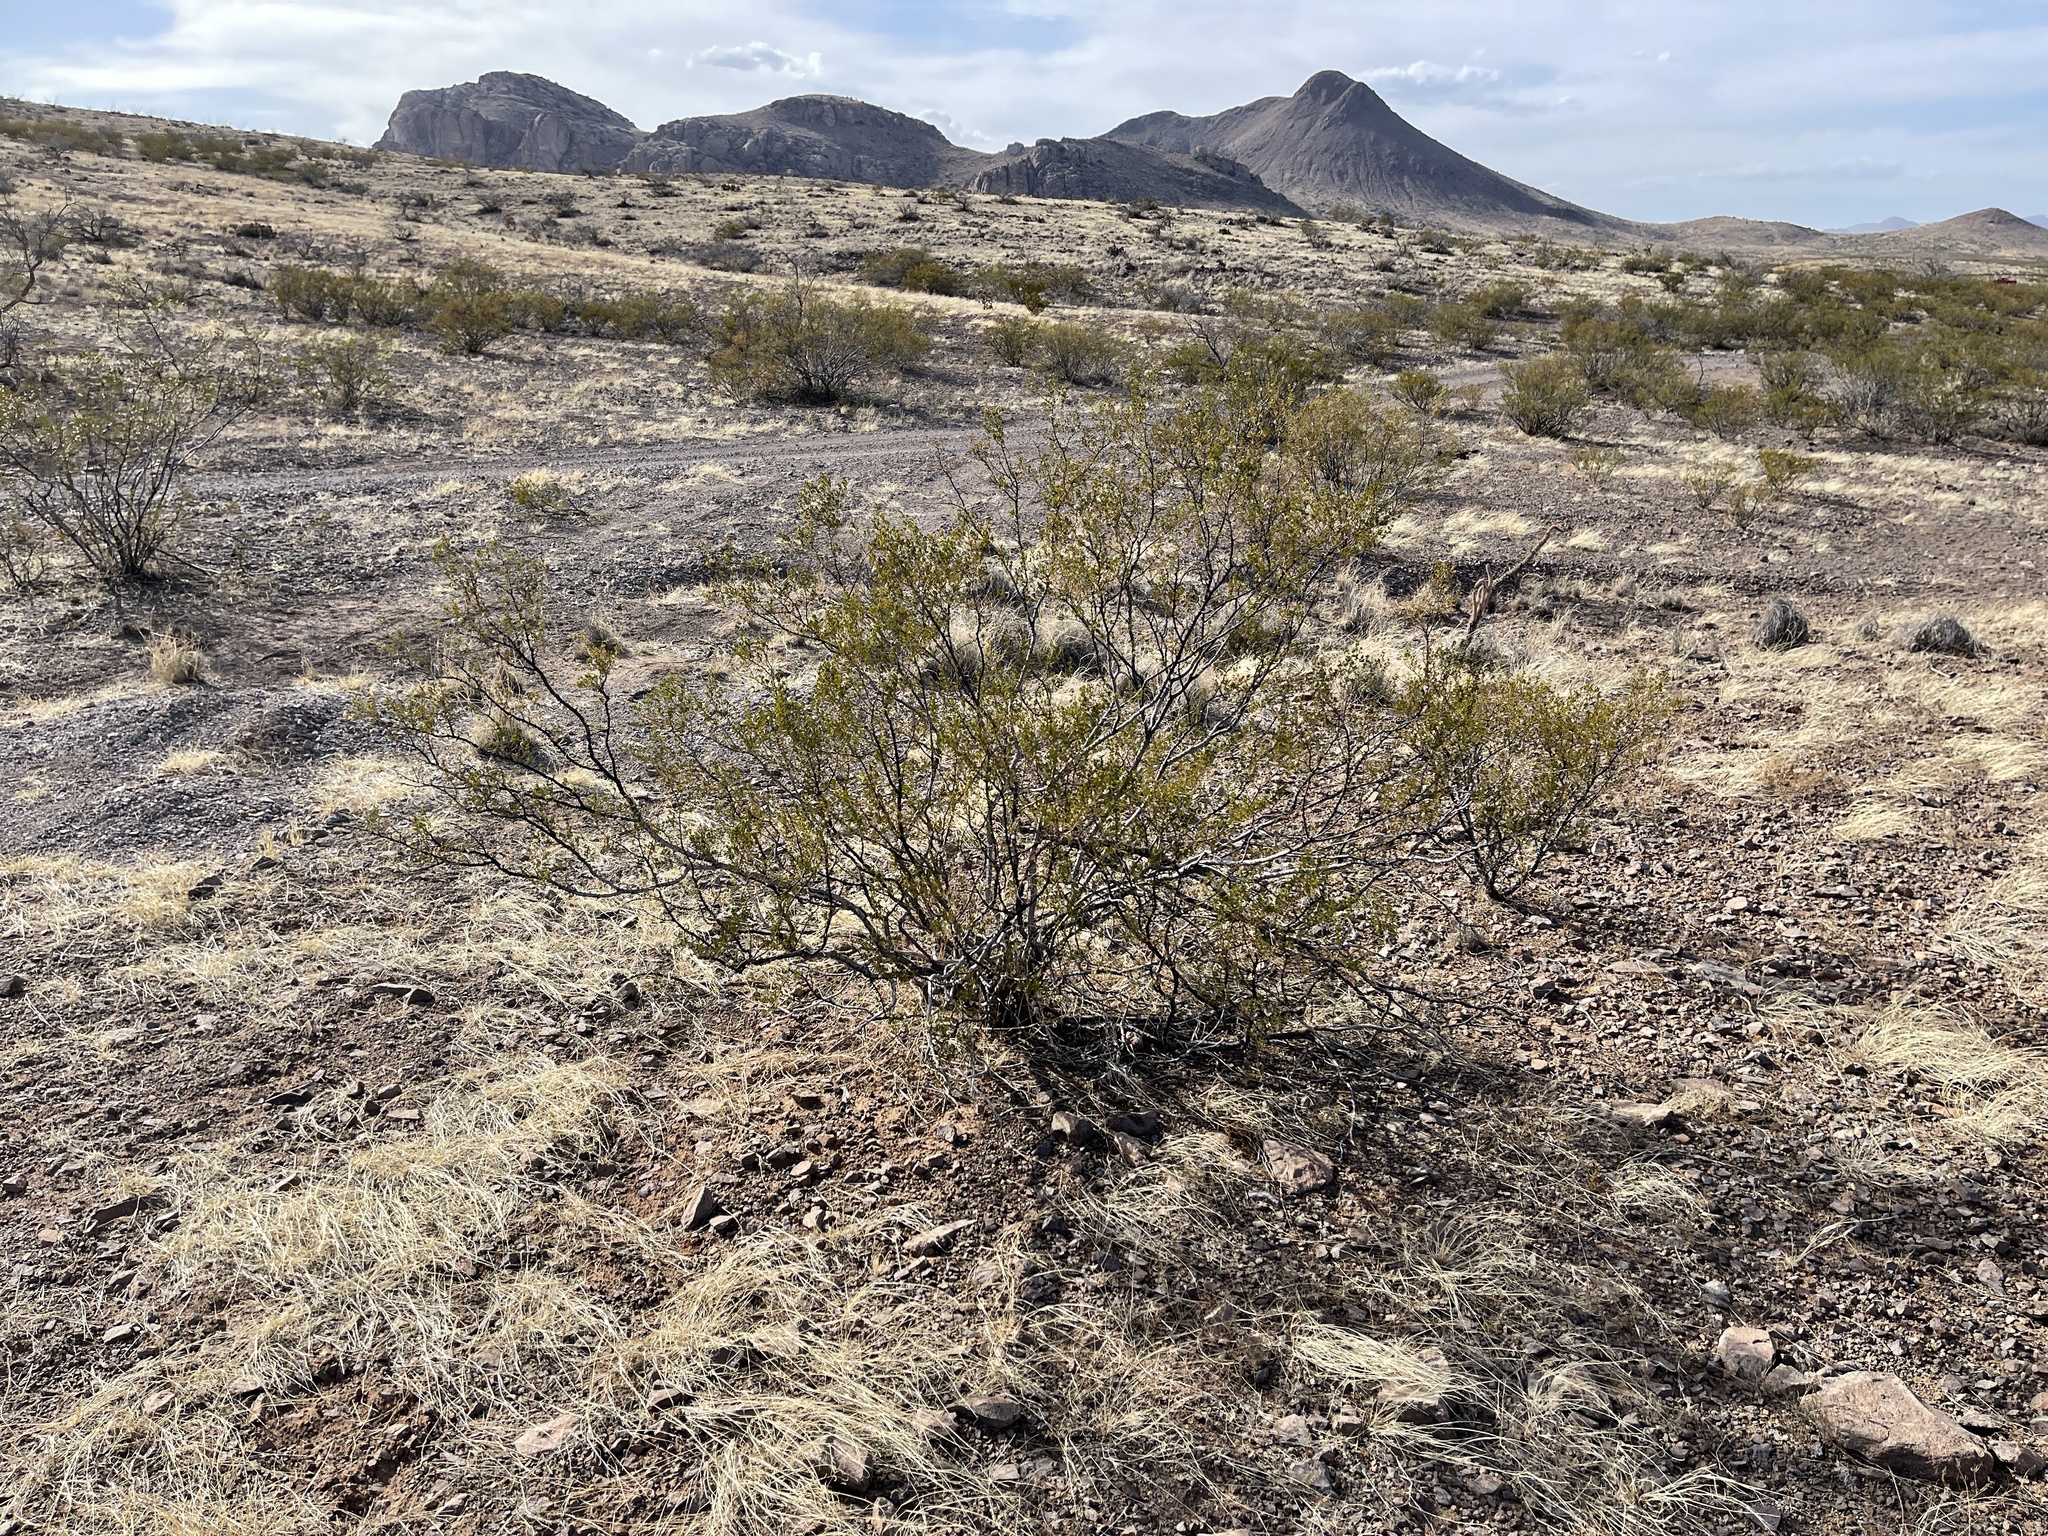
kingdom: Plantae
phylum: Tracheophyta
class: Magnoliopsida
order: Zygophyllales
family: Zygophyllaceae
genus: Larrea
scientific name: Larrea tridentata
